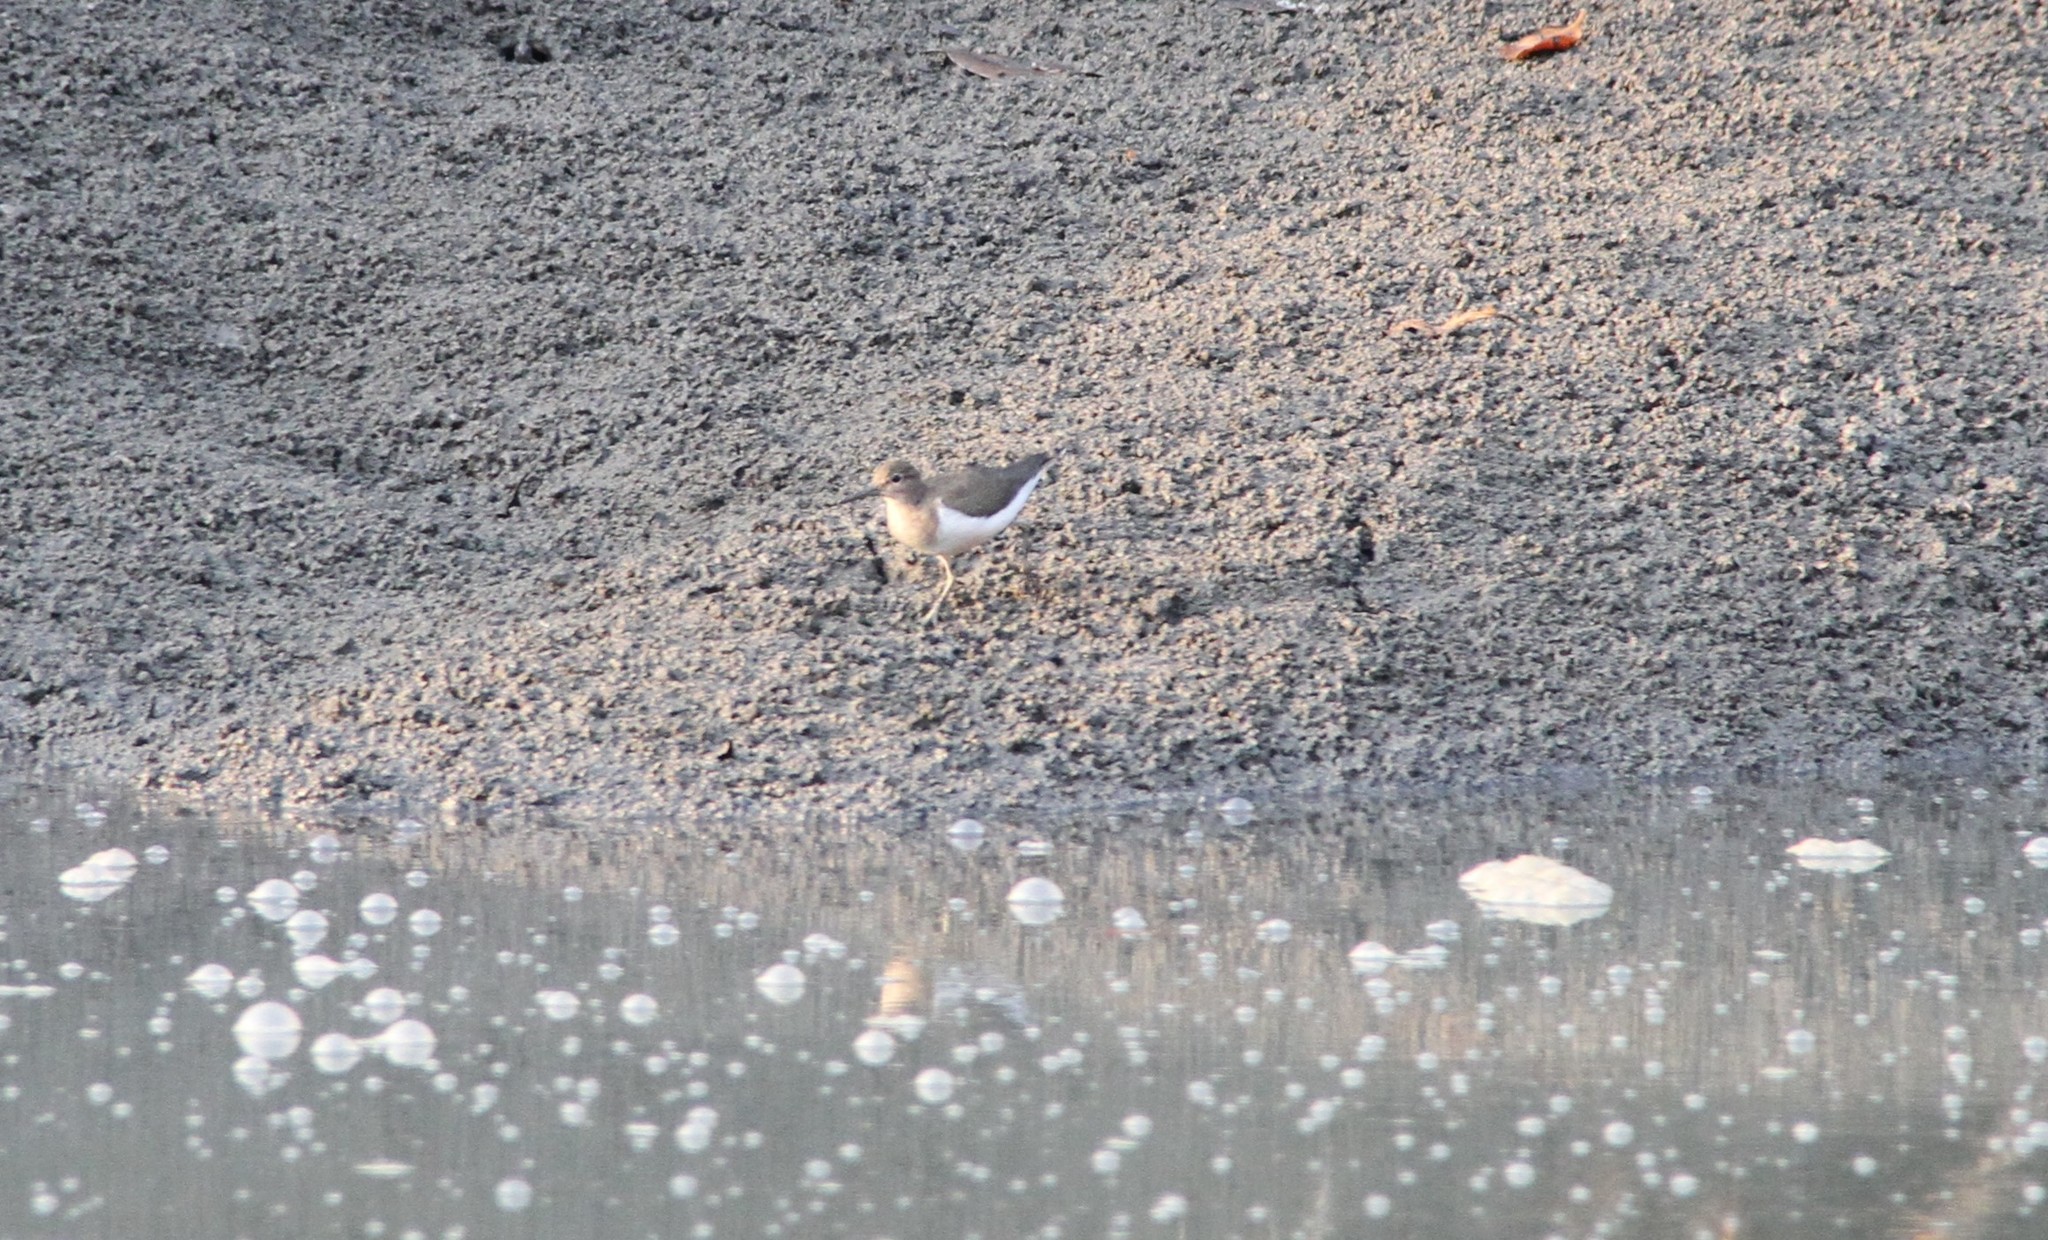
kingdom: Animalia
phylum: Chordata
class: Aves
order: Charadriiformes
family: Scolopacidae
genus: Actitis
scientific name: Actitis hypoleucos
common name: Common sandpiper
